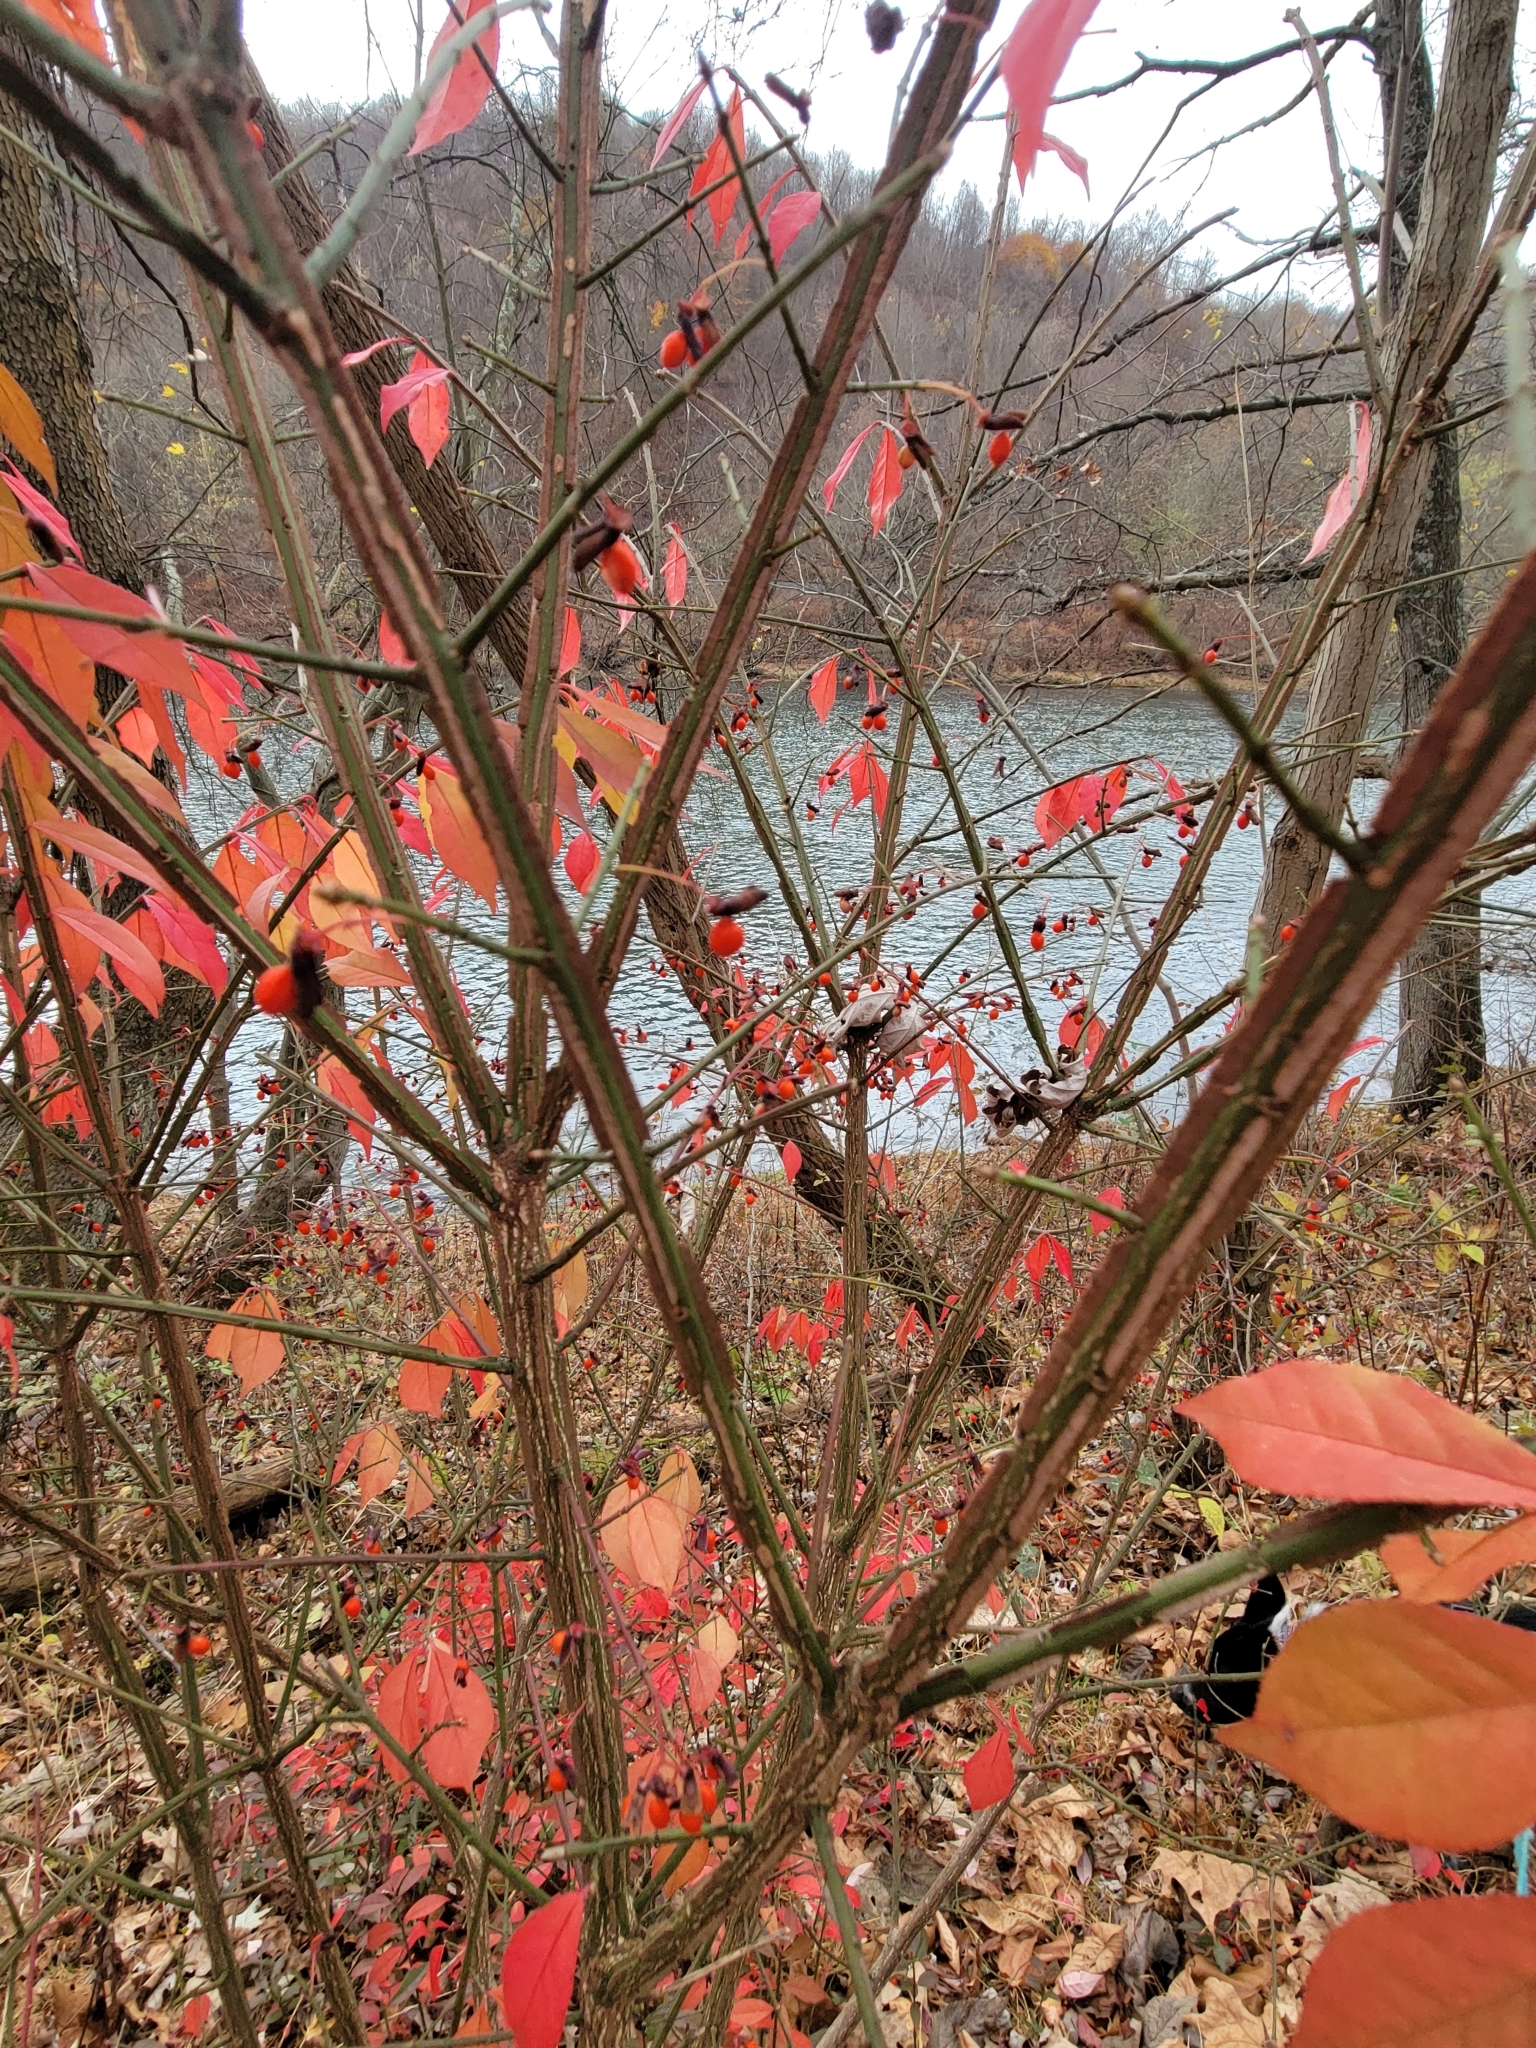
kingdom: Plantae
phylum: Tracheophyta
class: Magnoliopsida
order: Celastrales
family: Celastraceae
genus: Euonymus
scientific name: Euonymus alatus
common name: Winged euonymus
